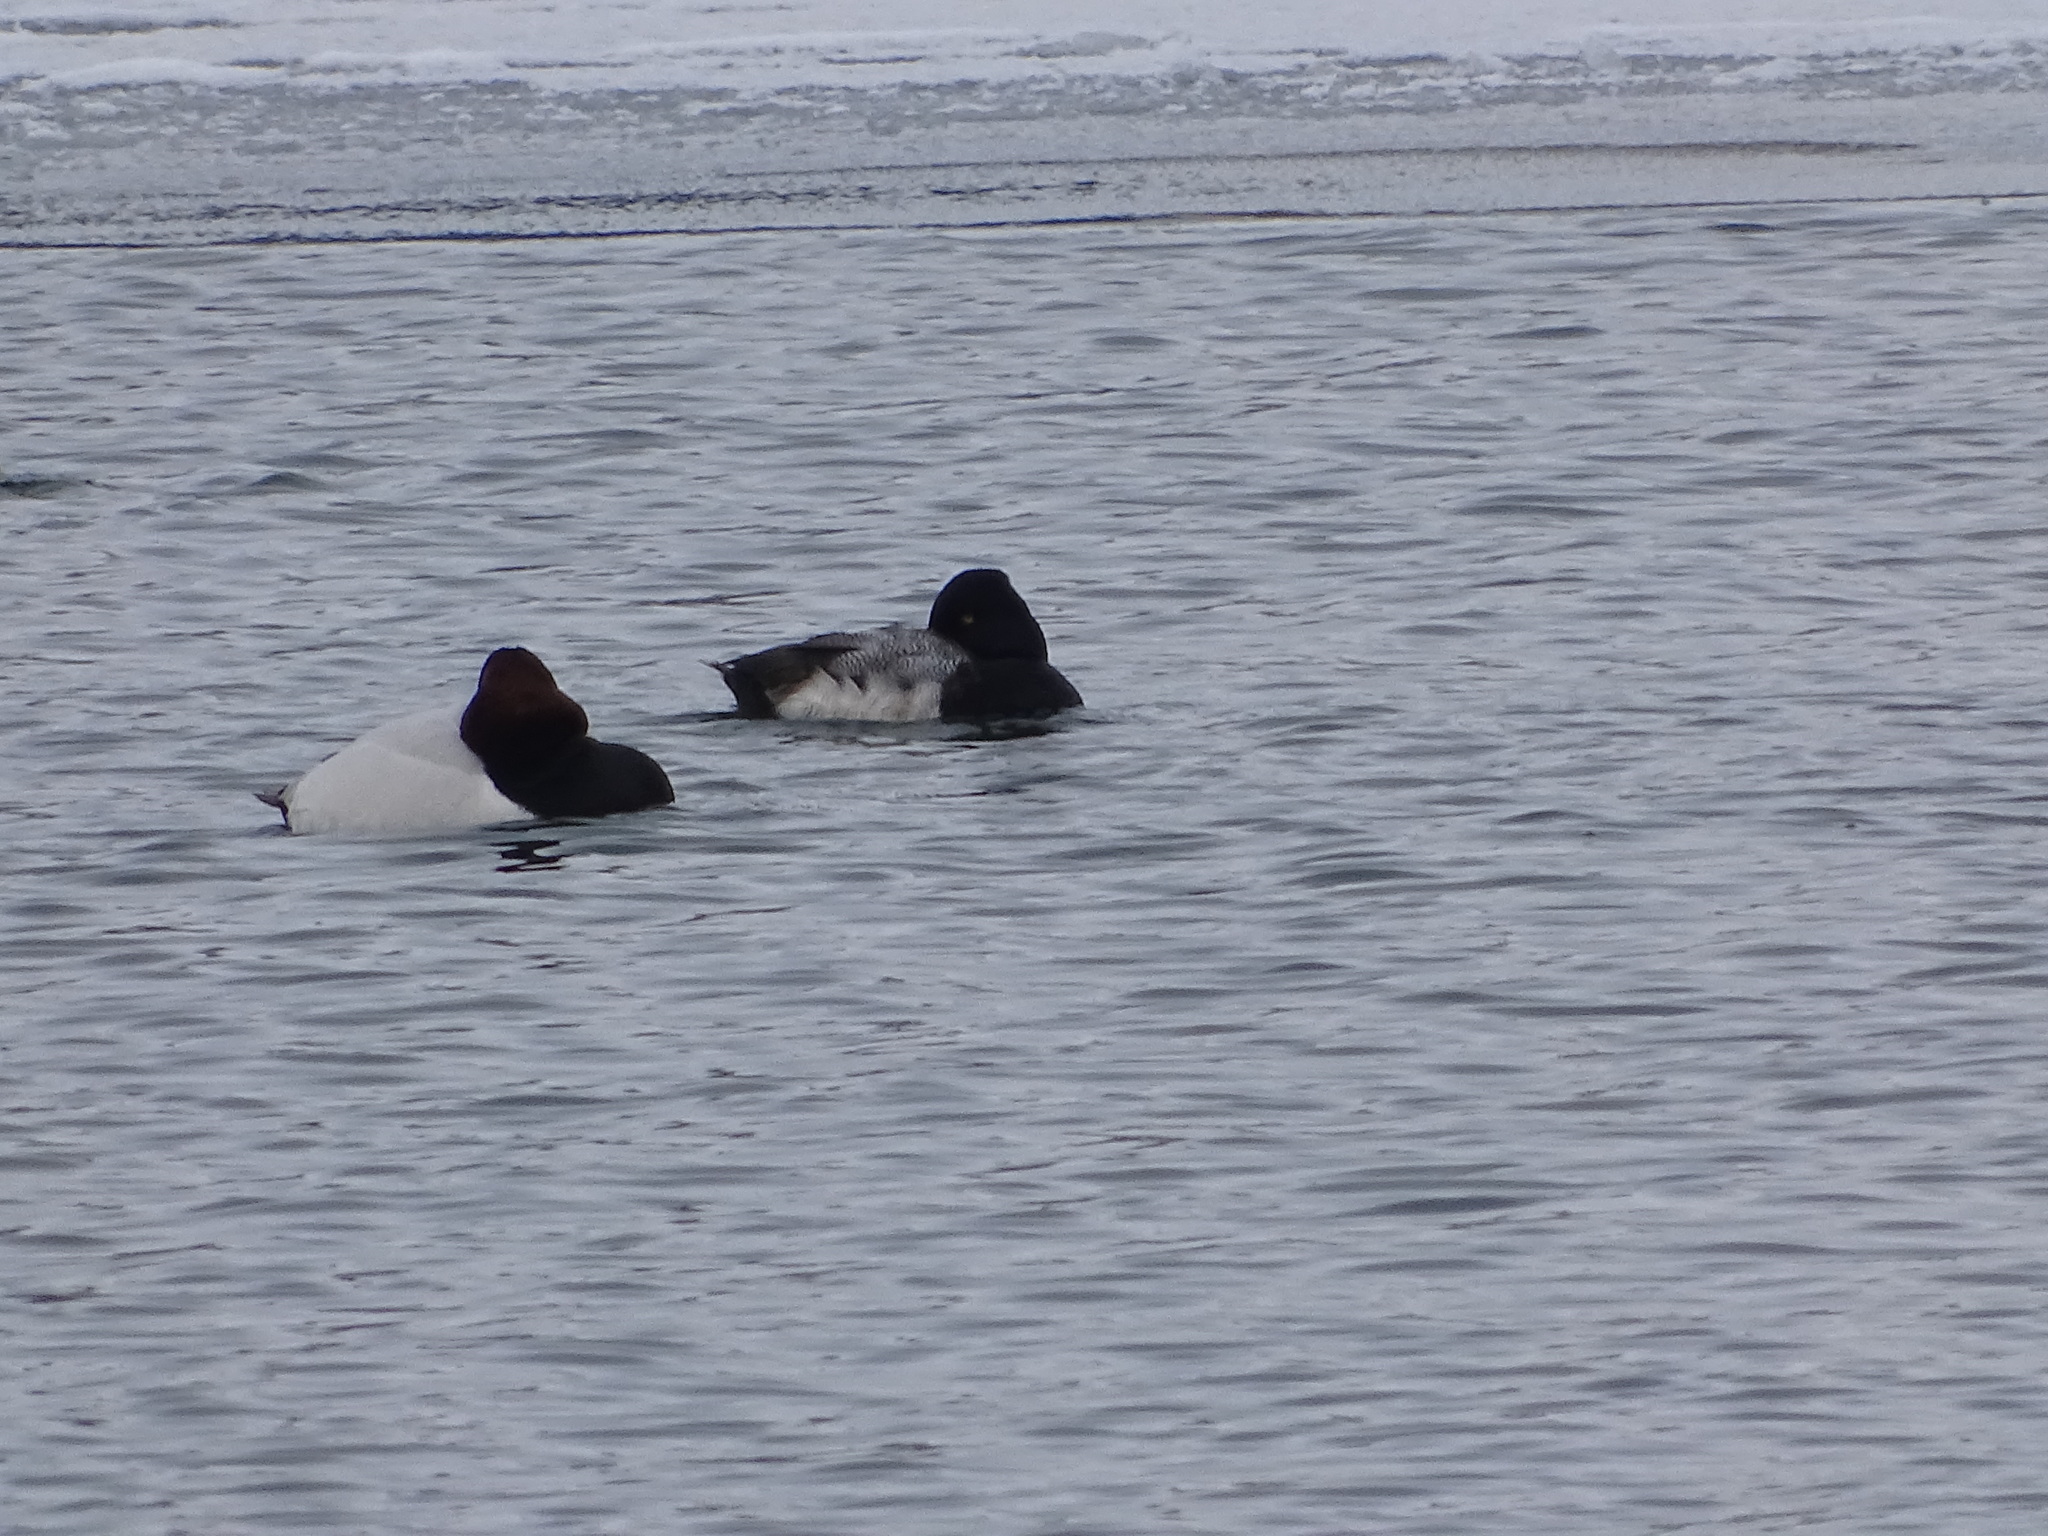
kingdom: Animalia
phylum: Chordata
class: Aves
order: Anseriformes
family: Anatidae
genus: Aythya
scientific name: Aythya affinis
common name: Lesser scaup
